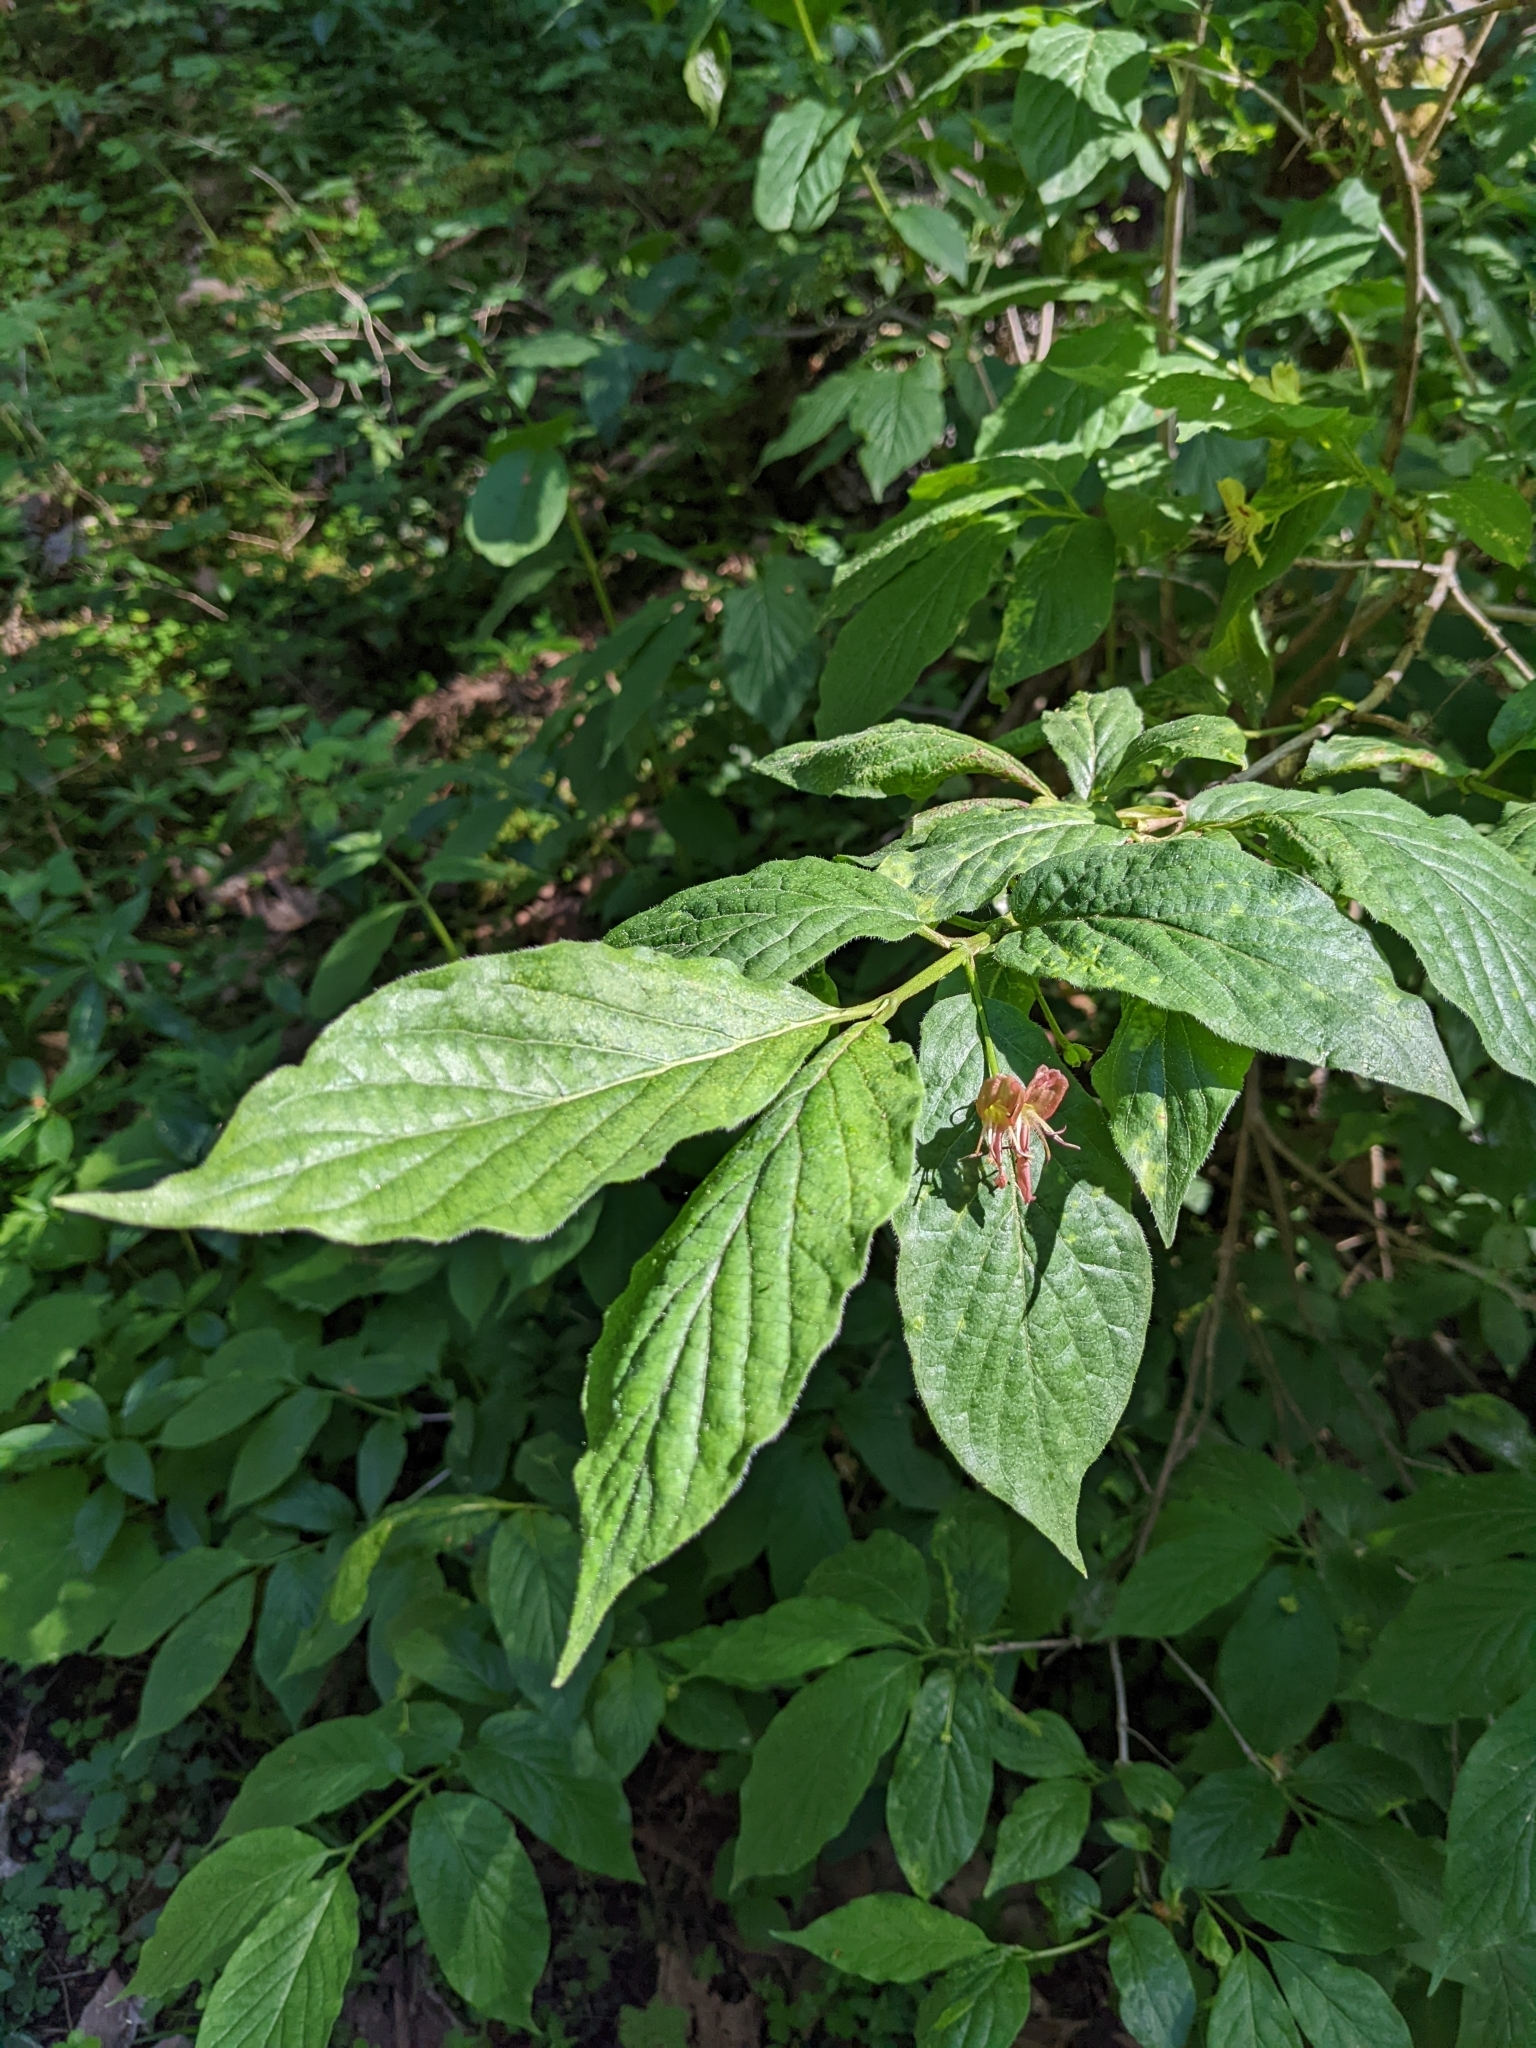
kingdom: Plantae
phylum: Tracheophyta
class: Magnoliopsida
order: Dipsacales
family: Caprifoliaceae
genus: Lonicera
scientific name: Lonicera alpigena
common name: Alpine honeysuckle
